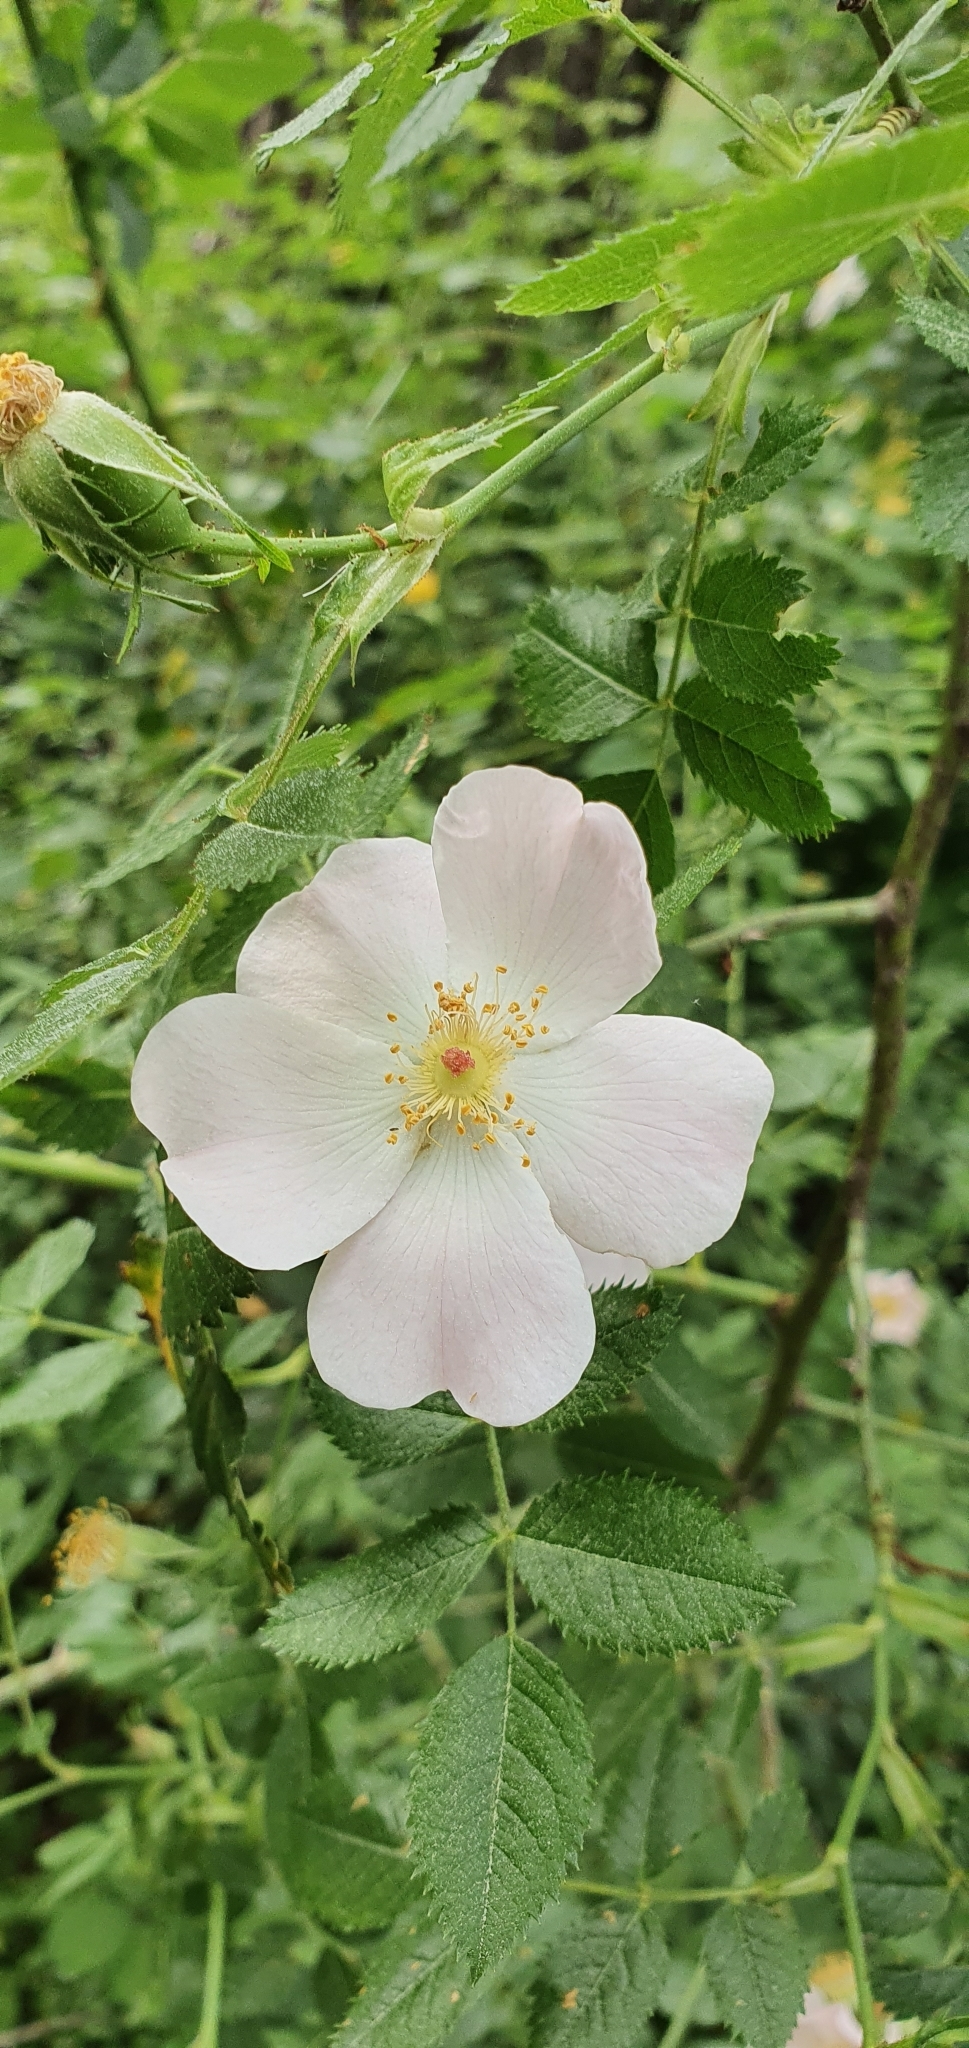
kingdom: Plantae
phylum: Tracheophyta
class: Magnoliopsida
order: Rosales
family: Rosaceae
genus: Rosa
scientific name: Rosa micrantha
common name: Small-flowered sweet-briar
